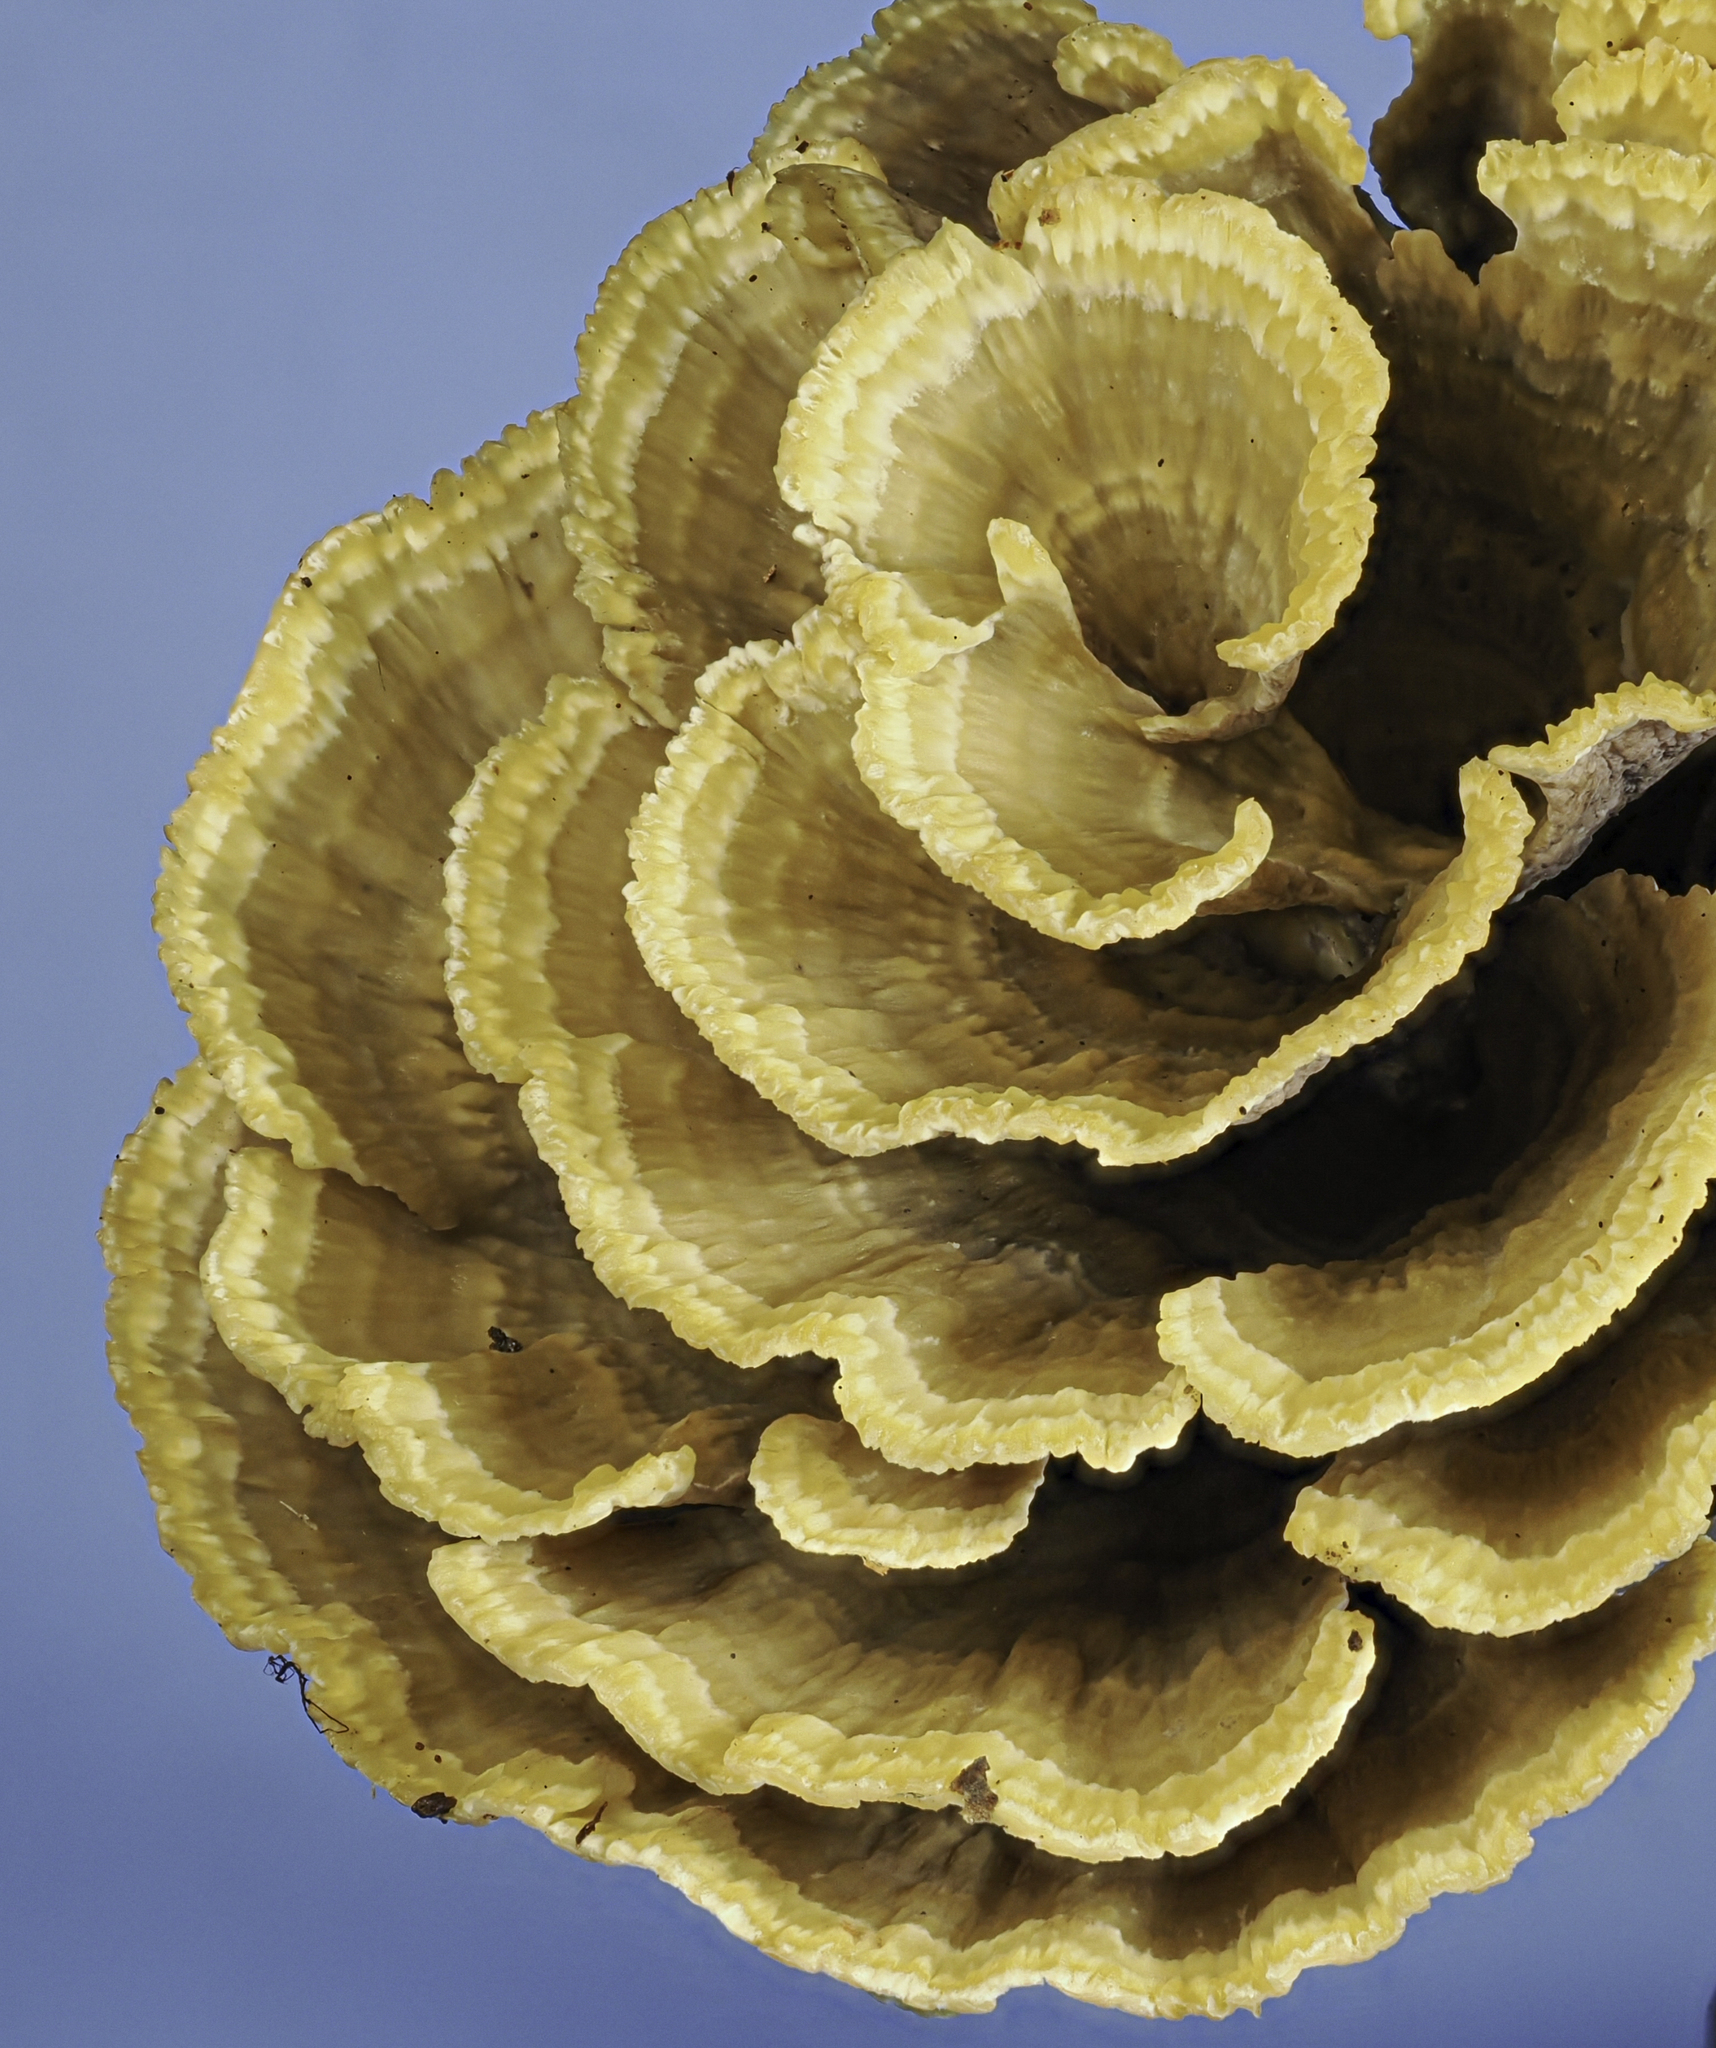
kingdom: Fungi
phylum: Basidiomycota
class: Agaricomycetes
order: Thelephorales
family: Thelephoraceae
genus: Thelephora
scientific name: Thelephora vialis
